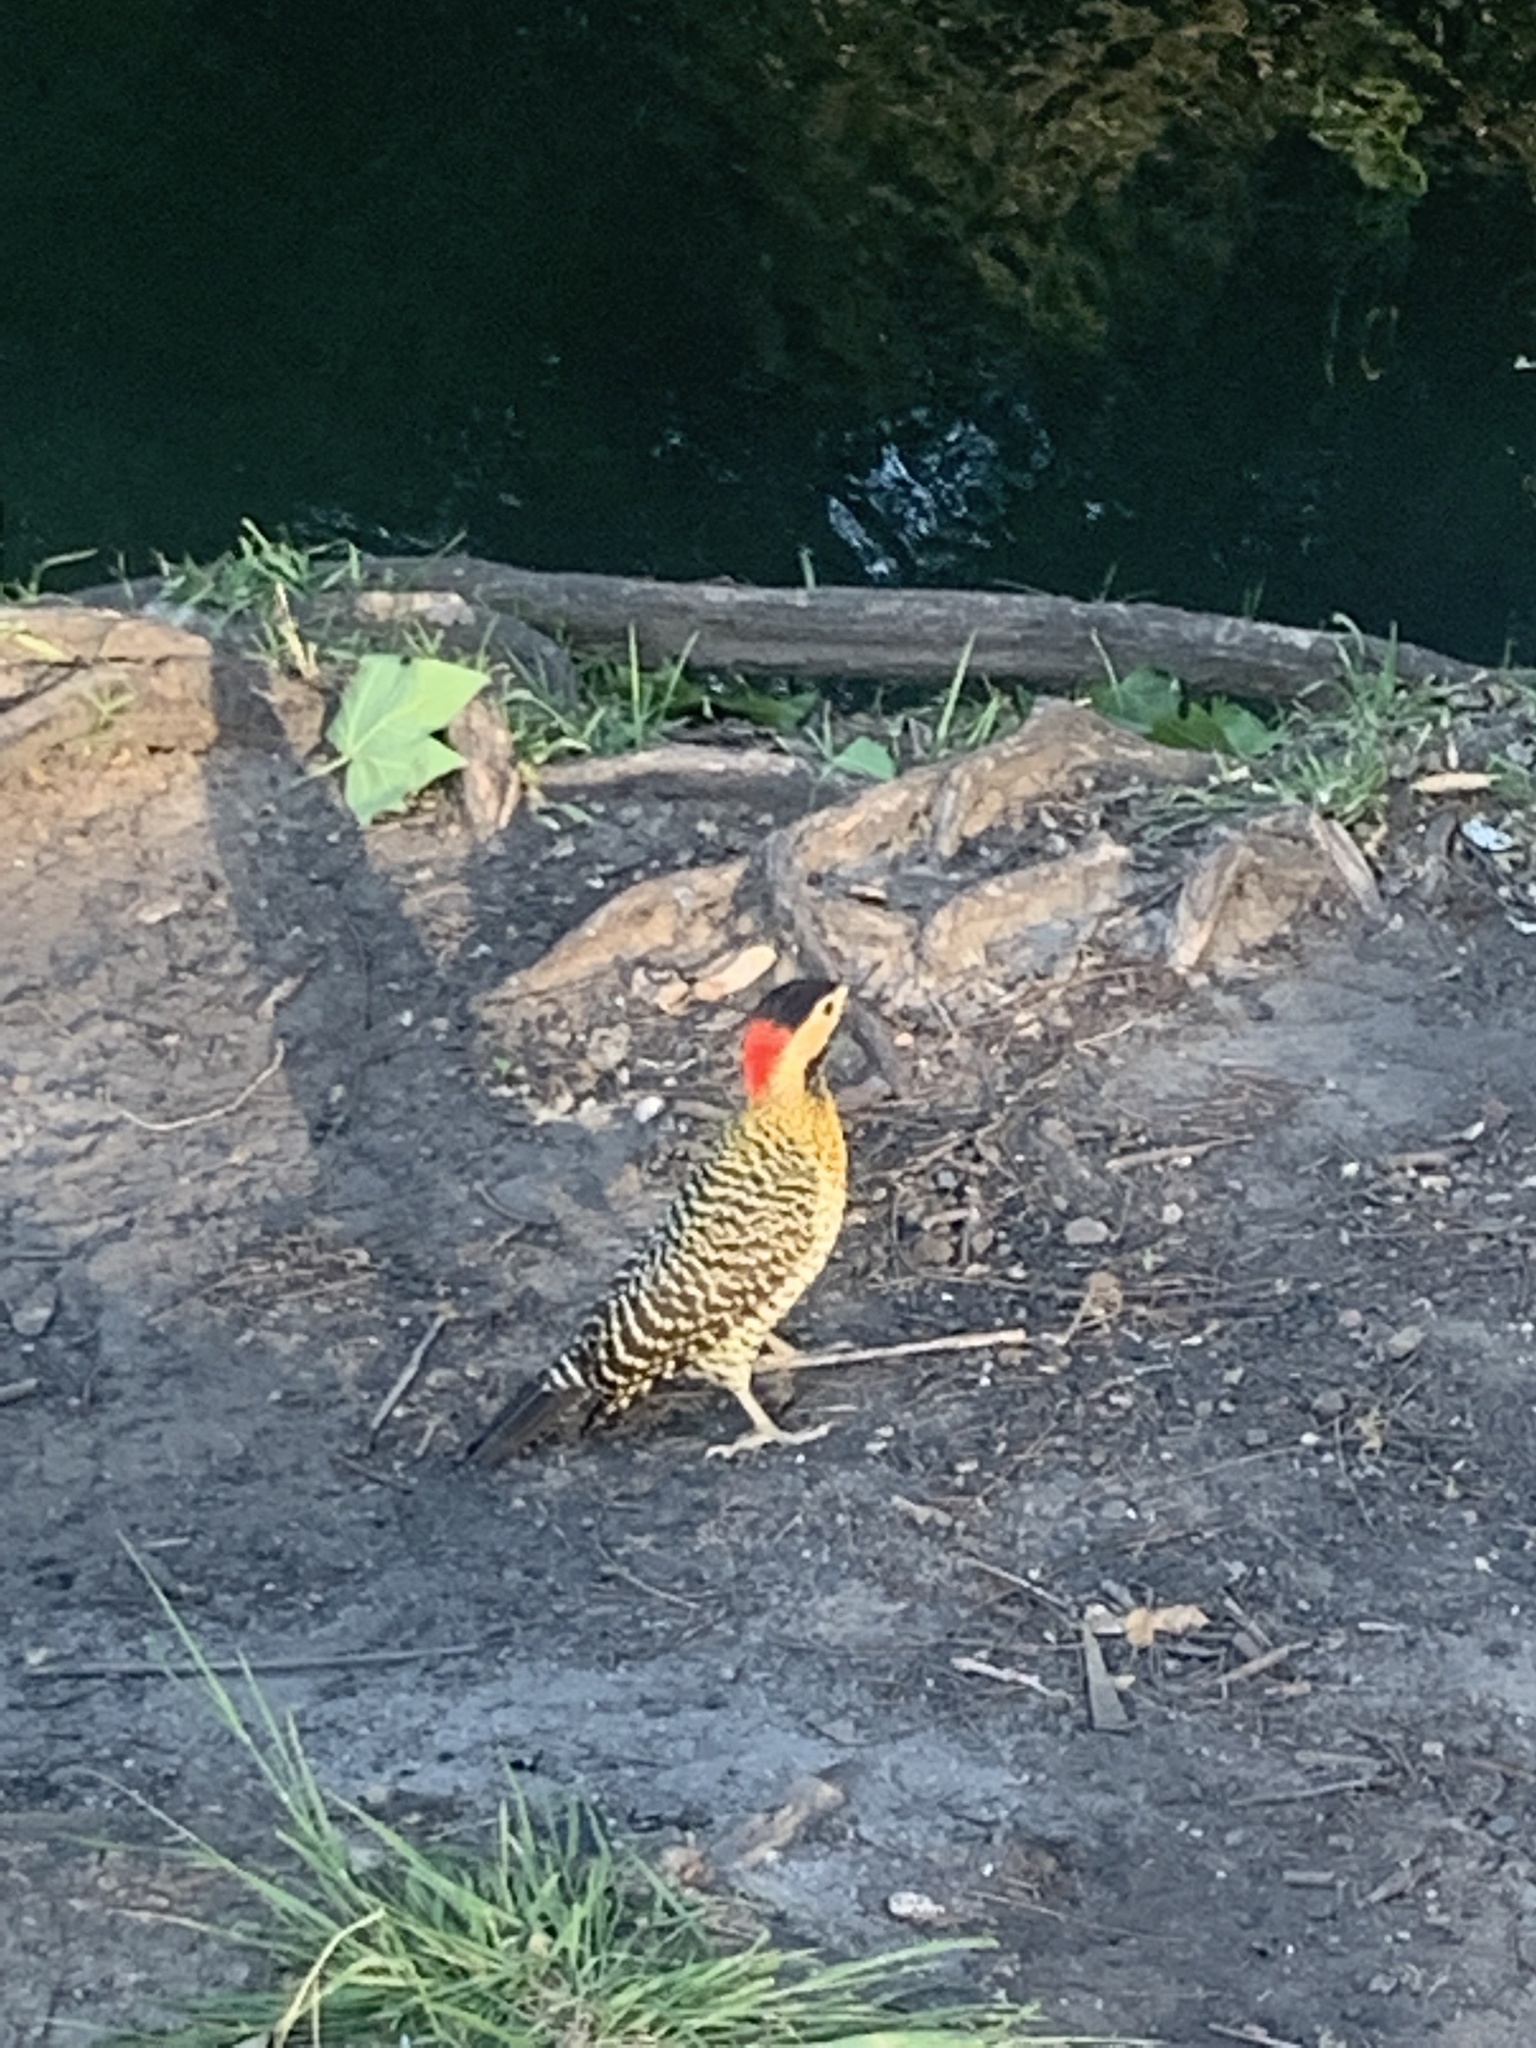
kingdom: Animalia
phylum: Chordata
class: Aves
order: Piciformes
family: Picidae
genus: Colaptes
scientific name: Colaptes melanochloros
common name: Green-barred woodpecker
